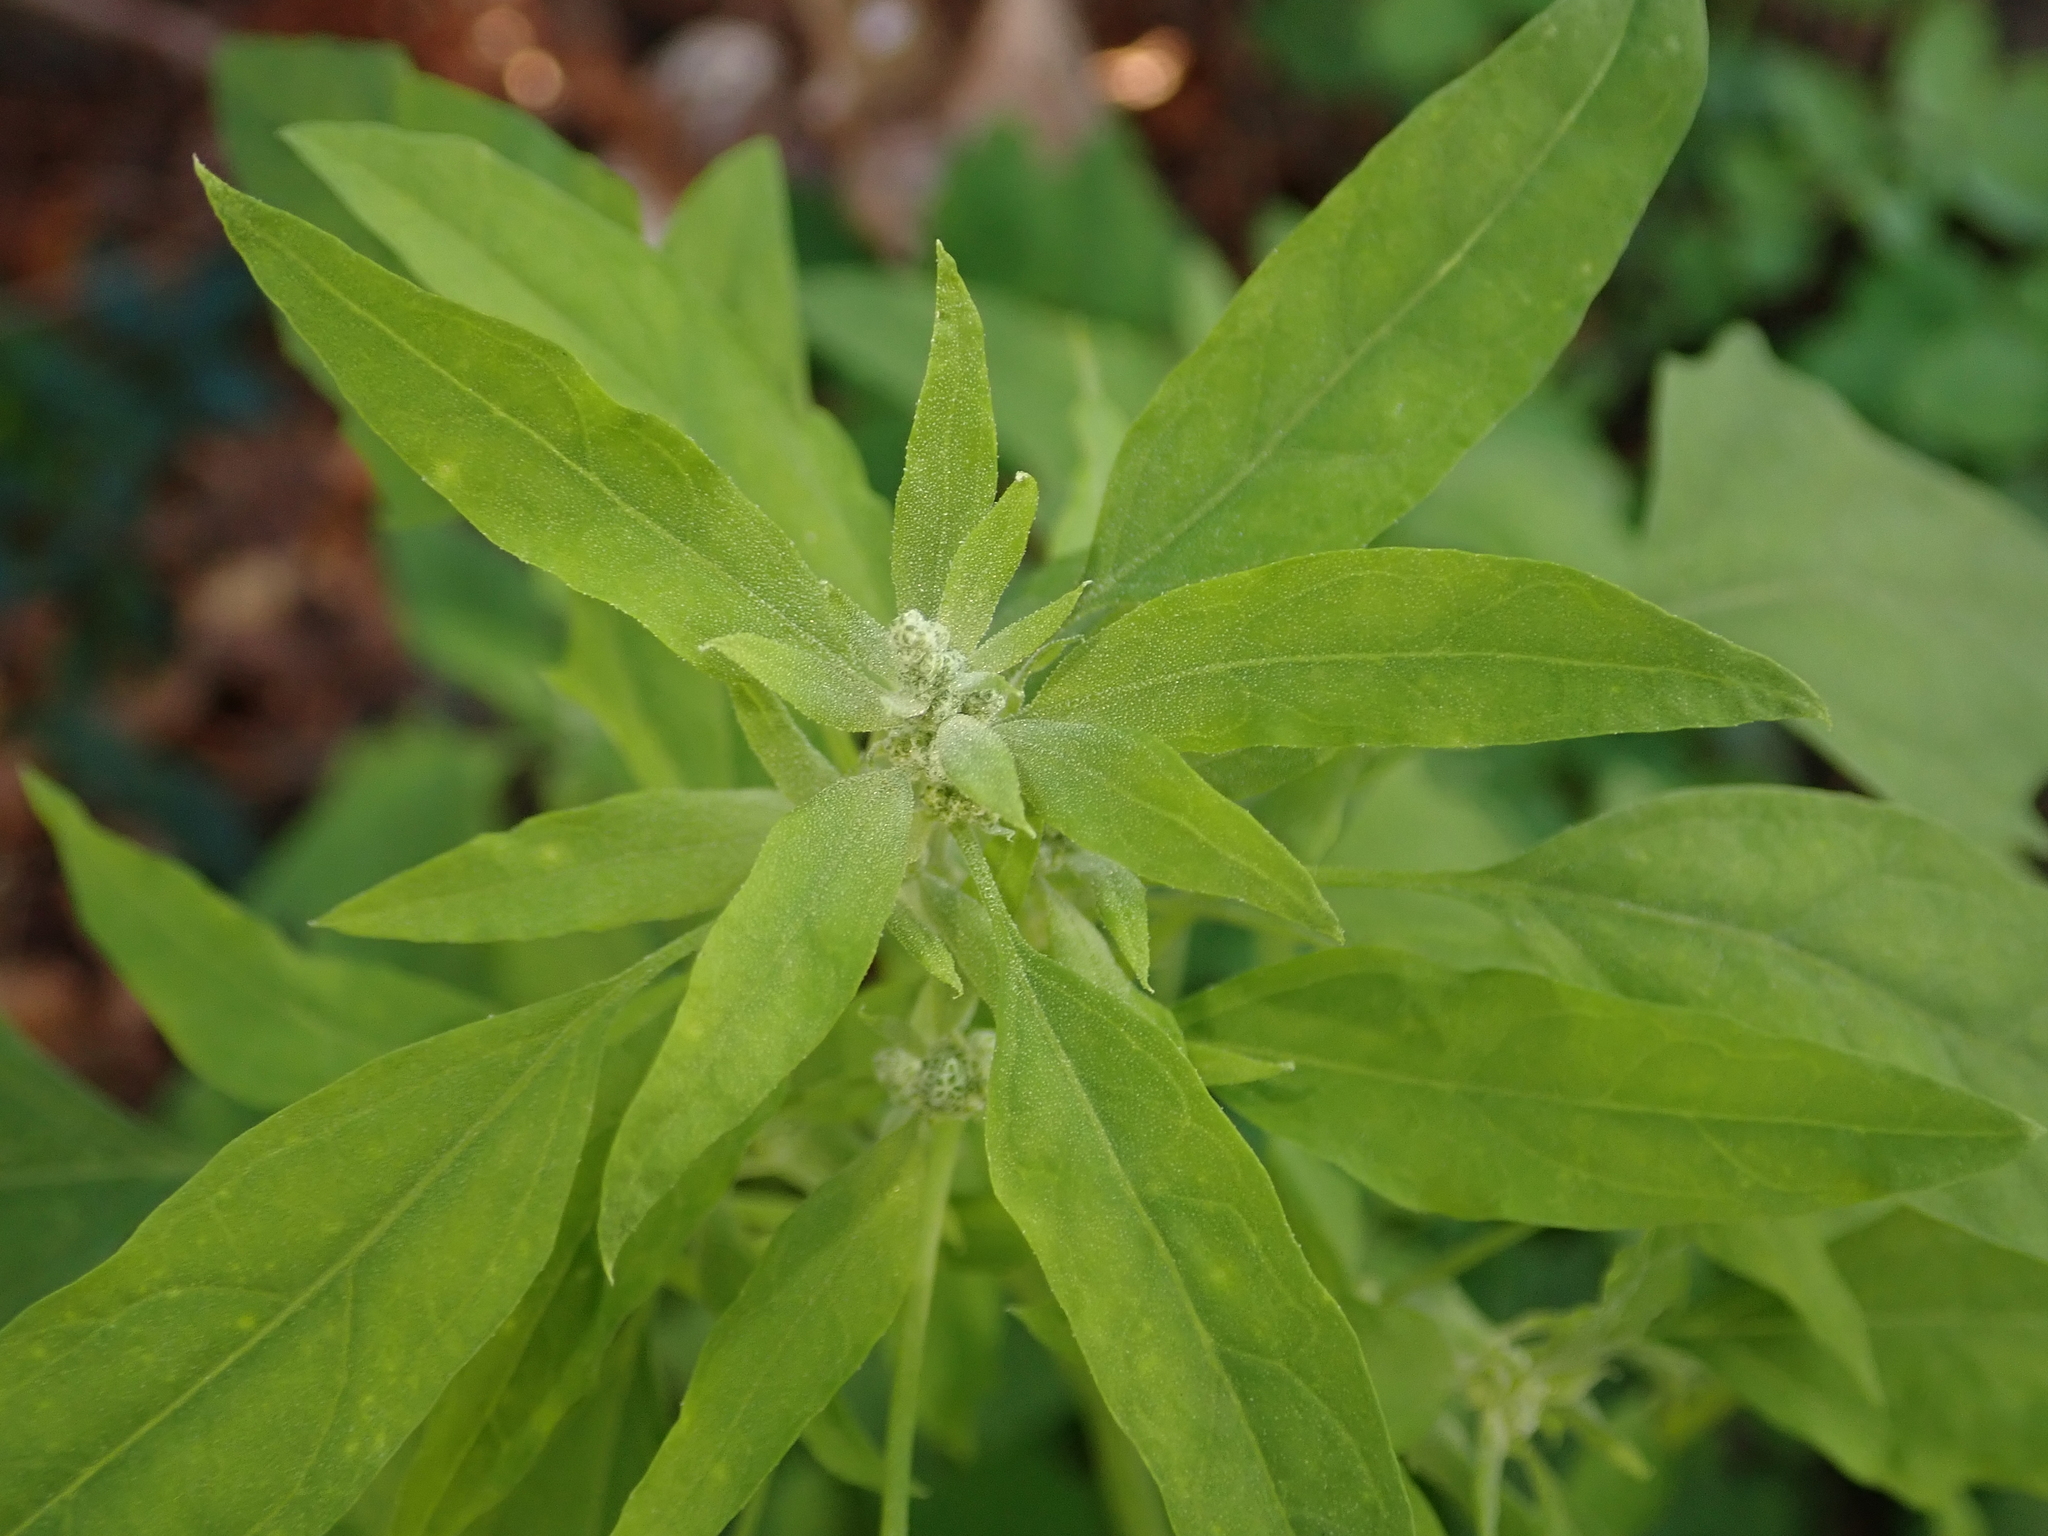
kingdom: Plantae
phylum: Tracheophyta
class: Magnoliopsida
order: Caryophyllales
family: Amaranthaceae
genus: Chenopodium
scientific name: Chenopodium album
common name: Fat-hen
